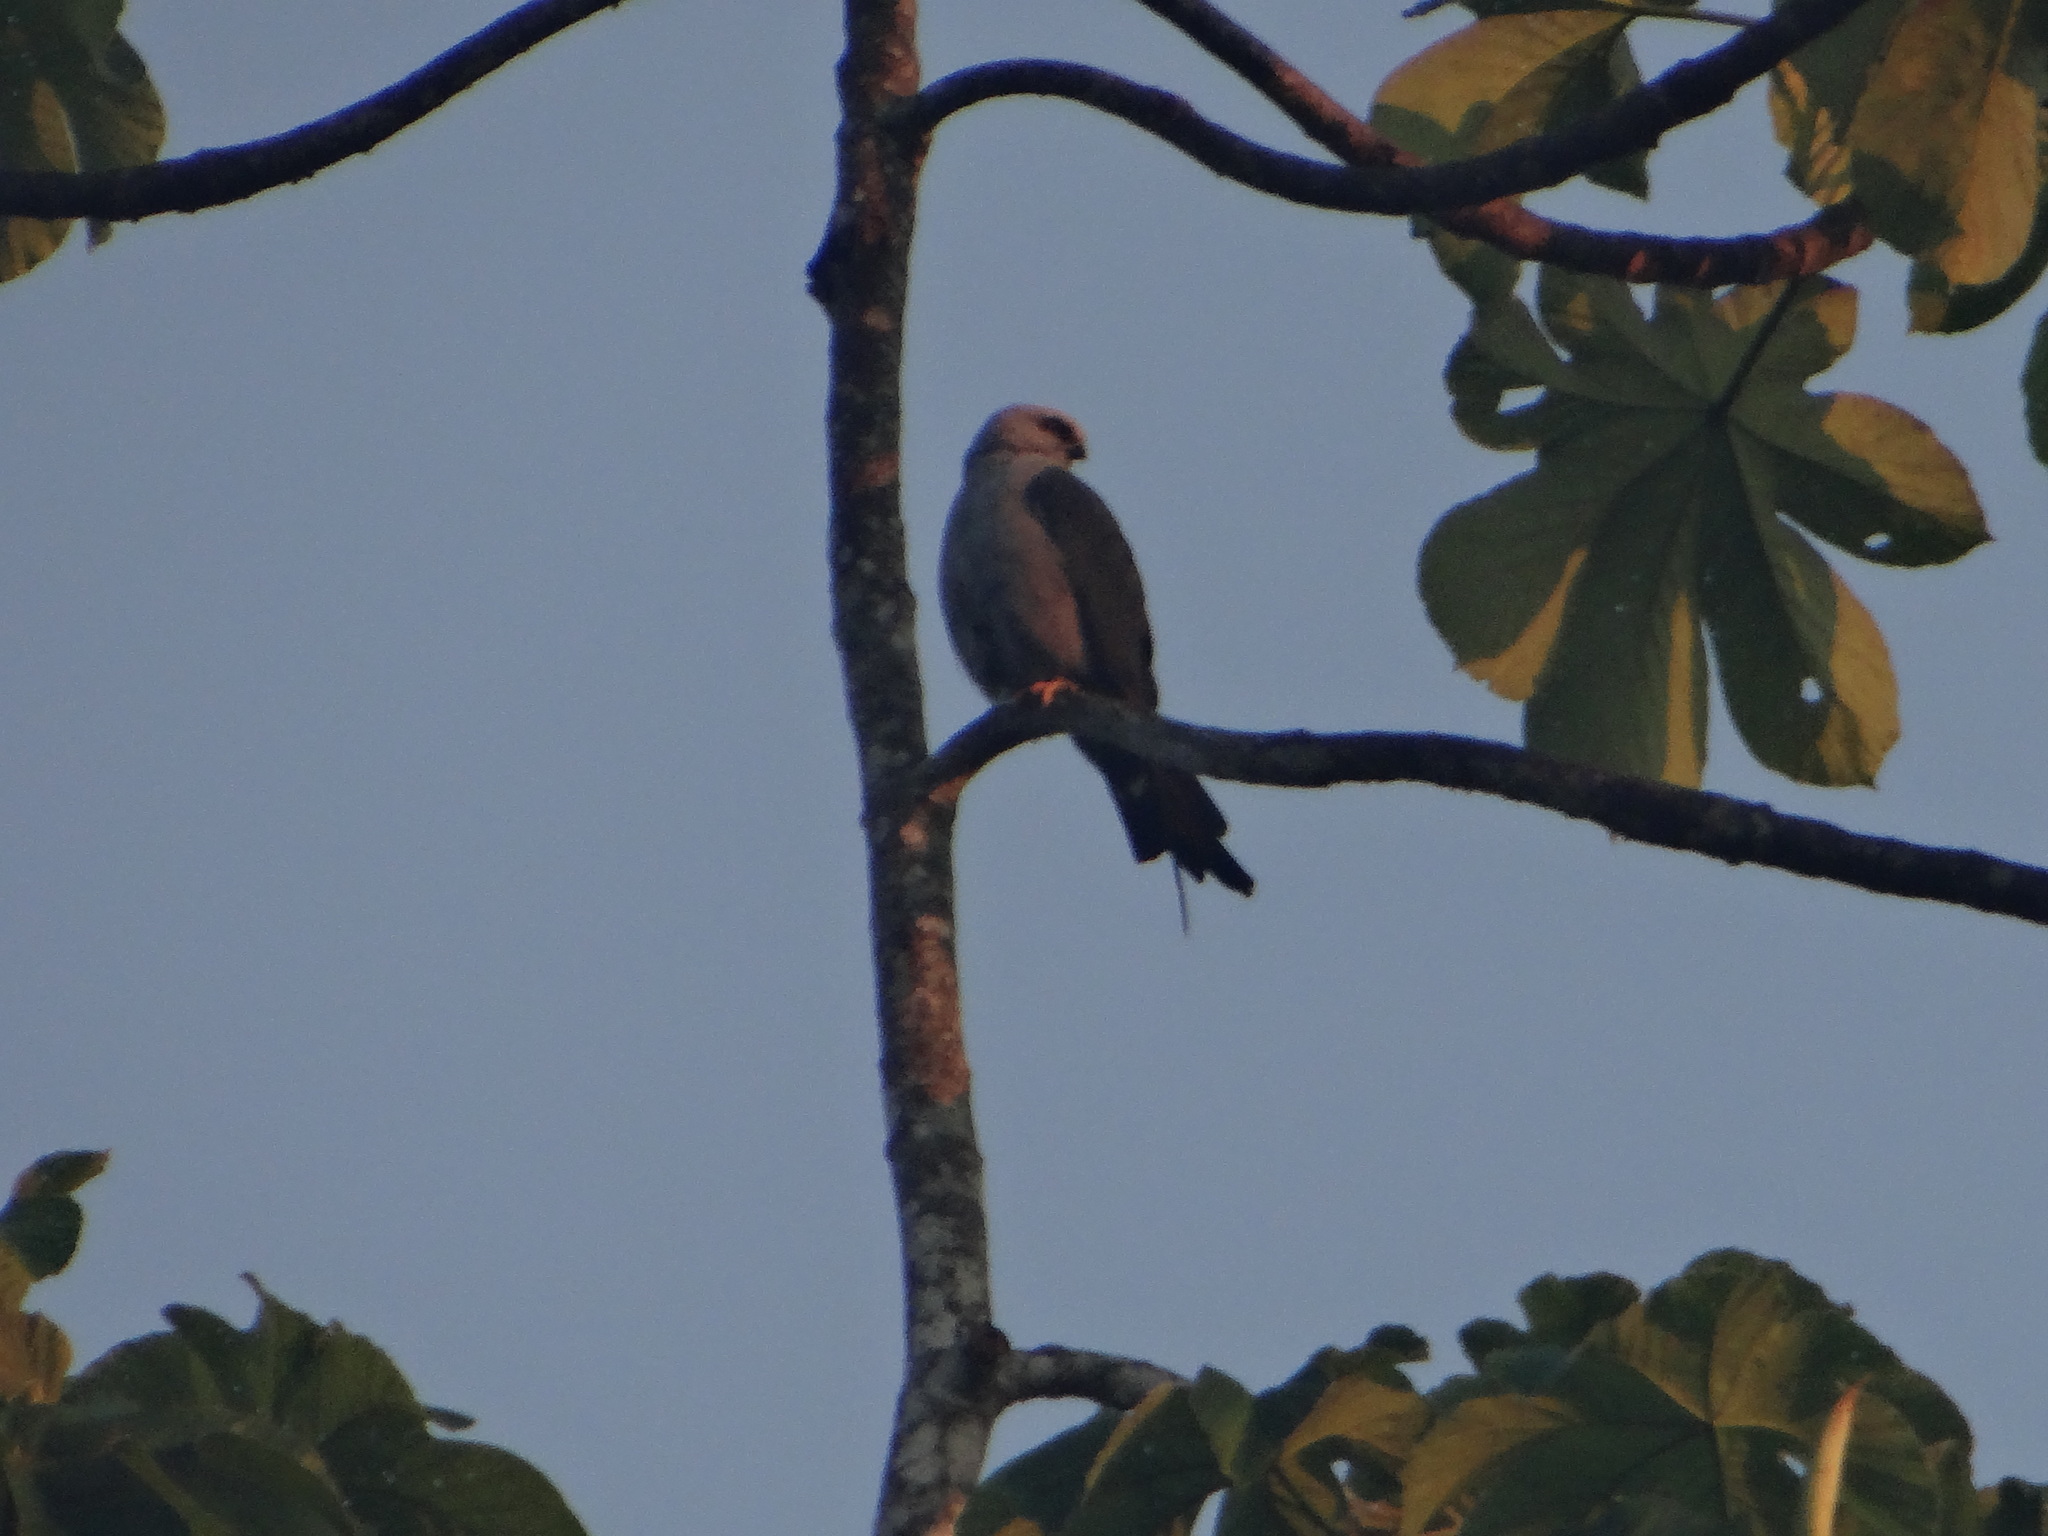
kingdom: Animalia
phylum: Chordata
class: Aves
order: Accipitriformes
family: Accipitridae
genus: Ictinia
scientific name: Ictinia plumbea
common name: Plumbeous kite
